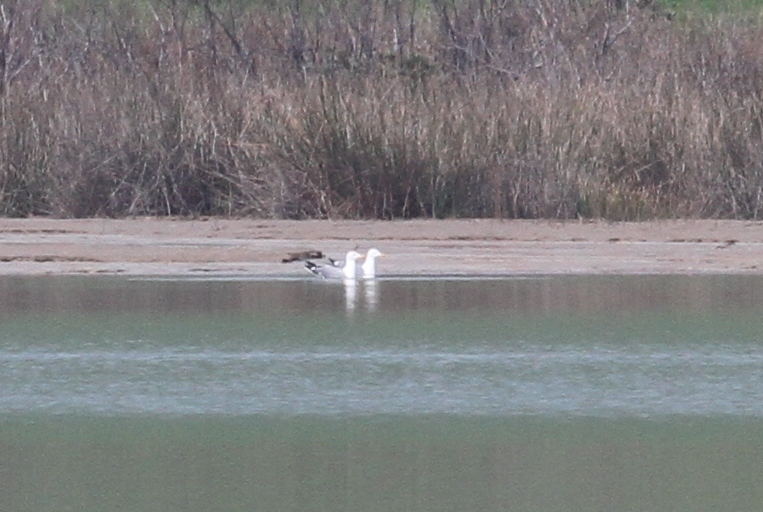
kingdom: Animalia
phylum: Chordata
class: Aves
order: Charadriiformes
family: Laridae
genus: Larus
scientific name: Larus michahellis
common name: Yellow-legged gull
